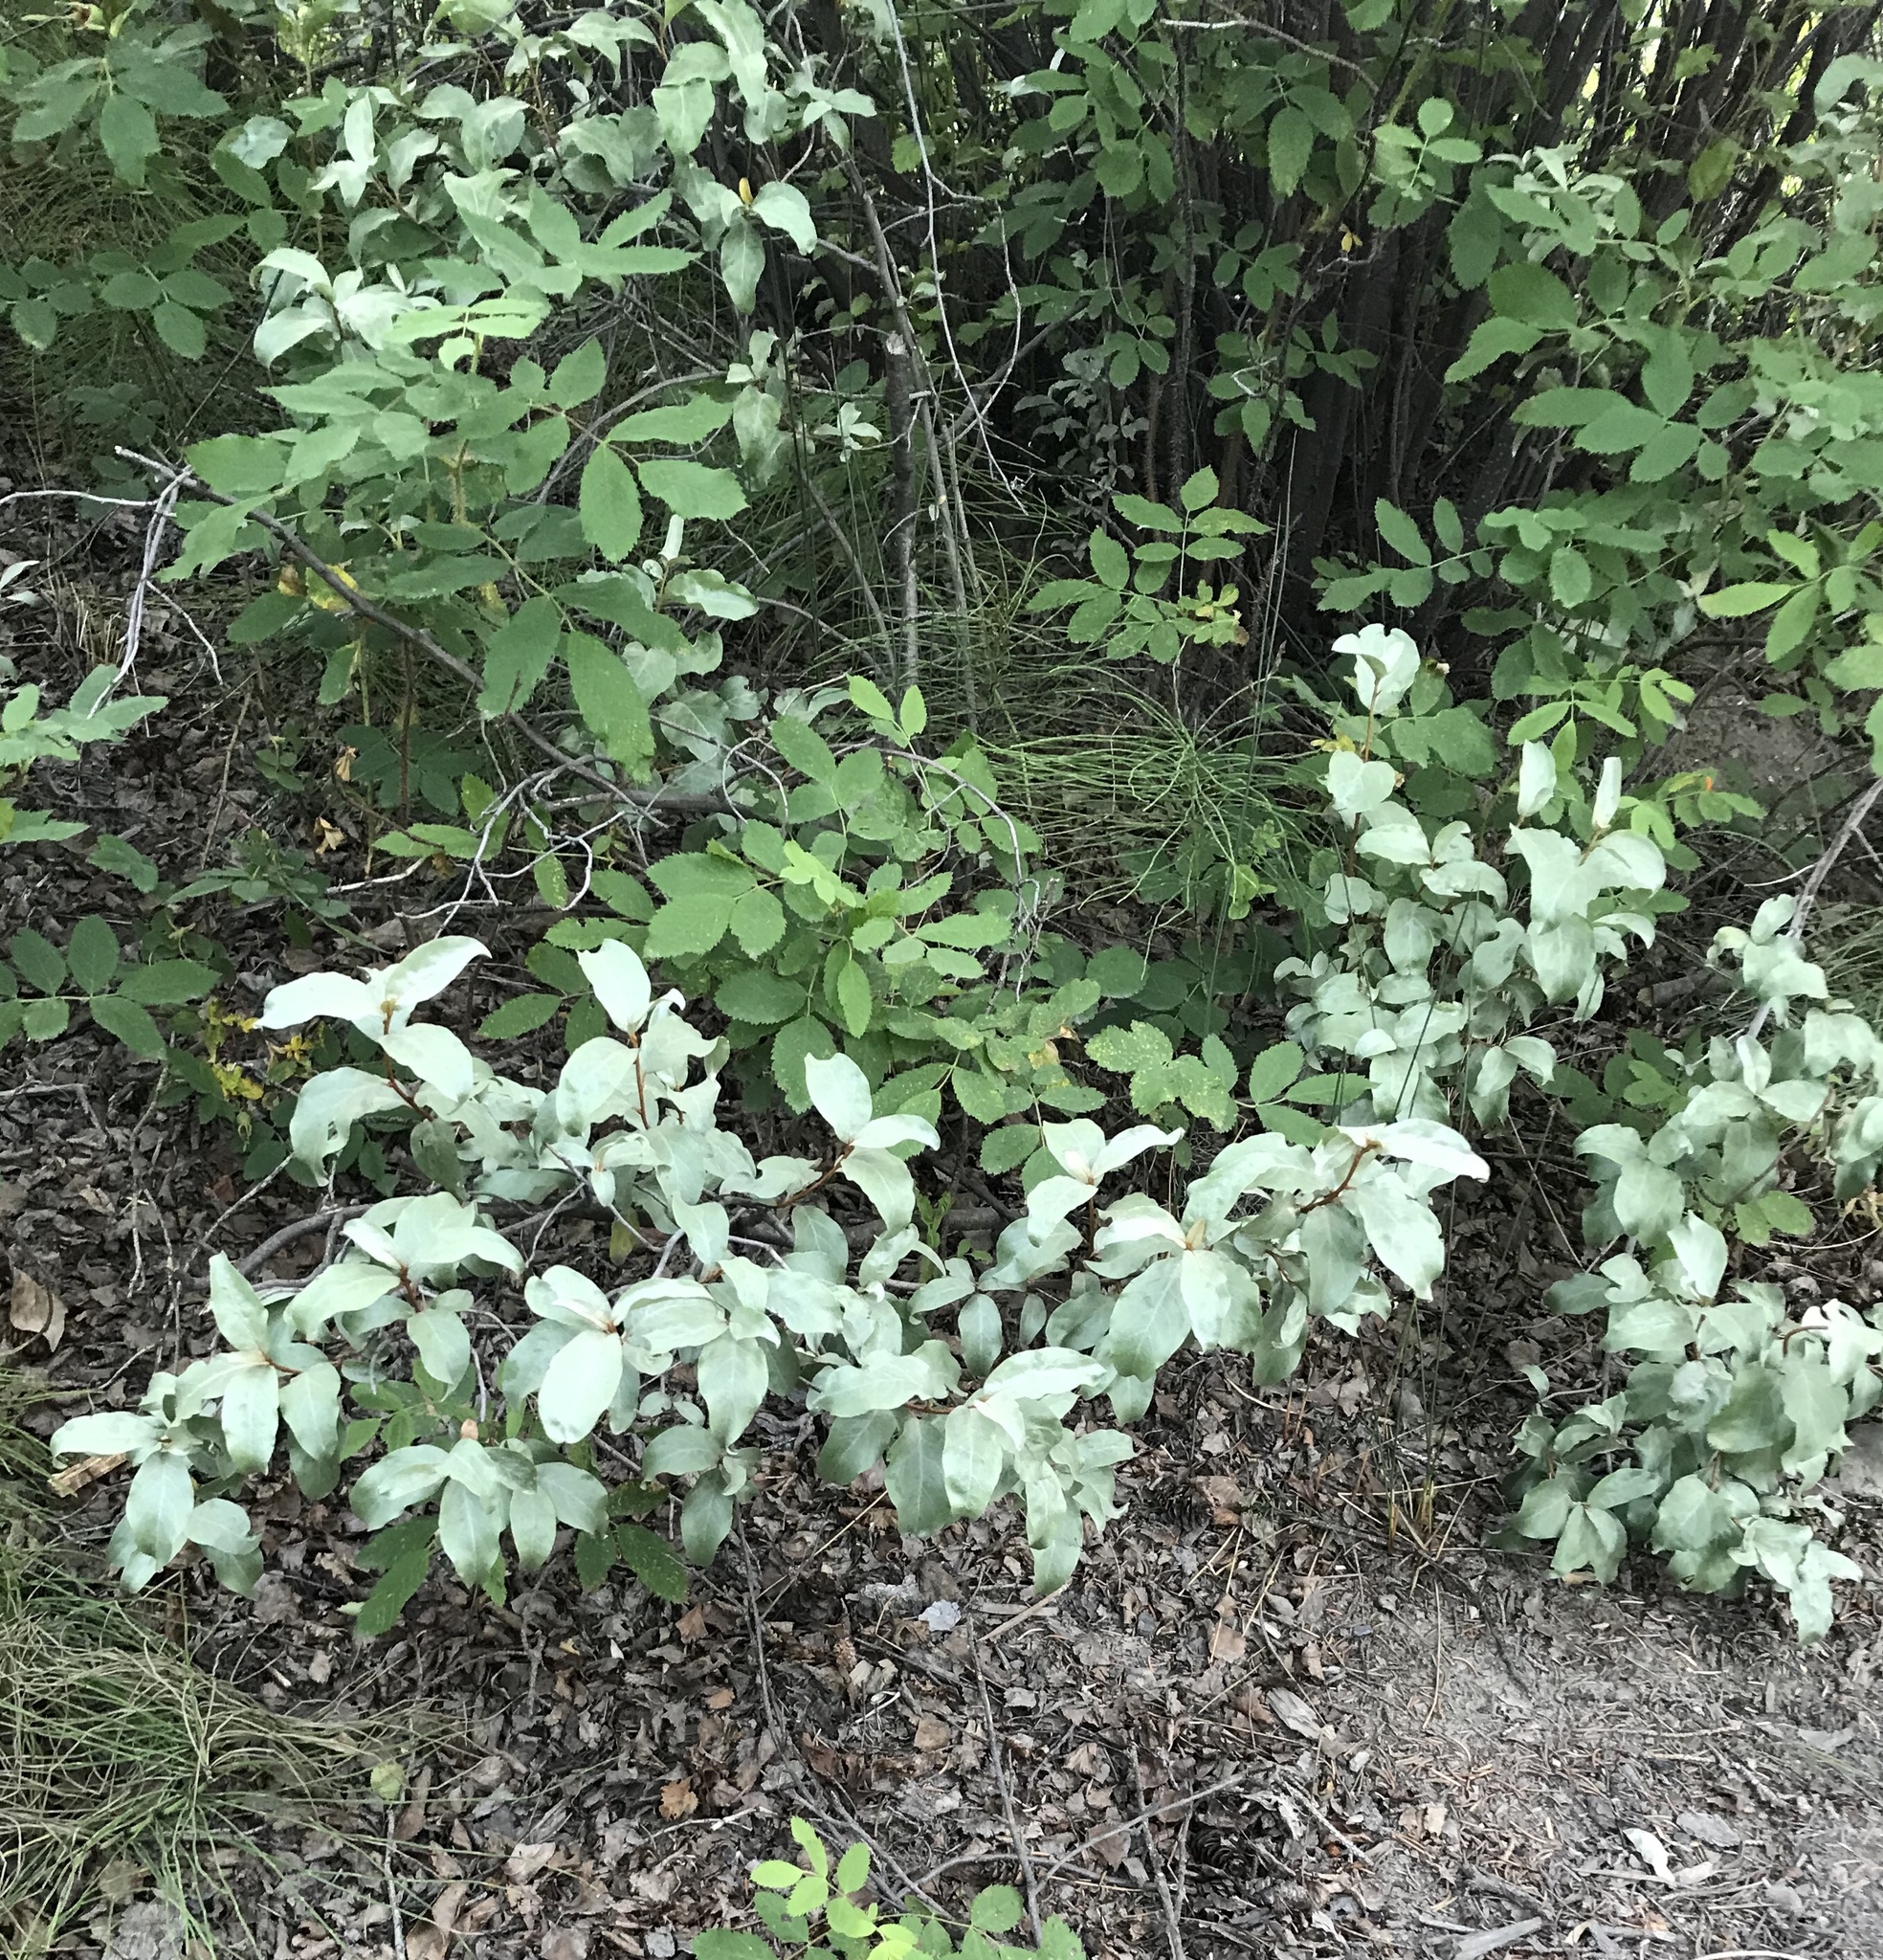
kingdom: Plantae
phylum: Tracheophyta
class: Magnoliopsida
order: Rosales
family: Elaeagnaceae
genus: Elaeagnus
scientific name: Elaeagnus commutata
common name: Silverberry
